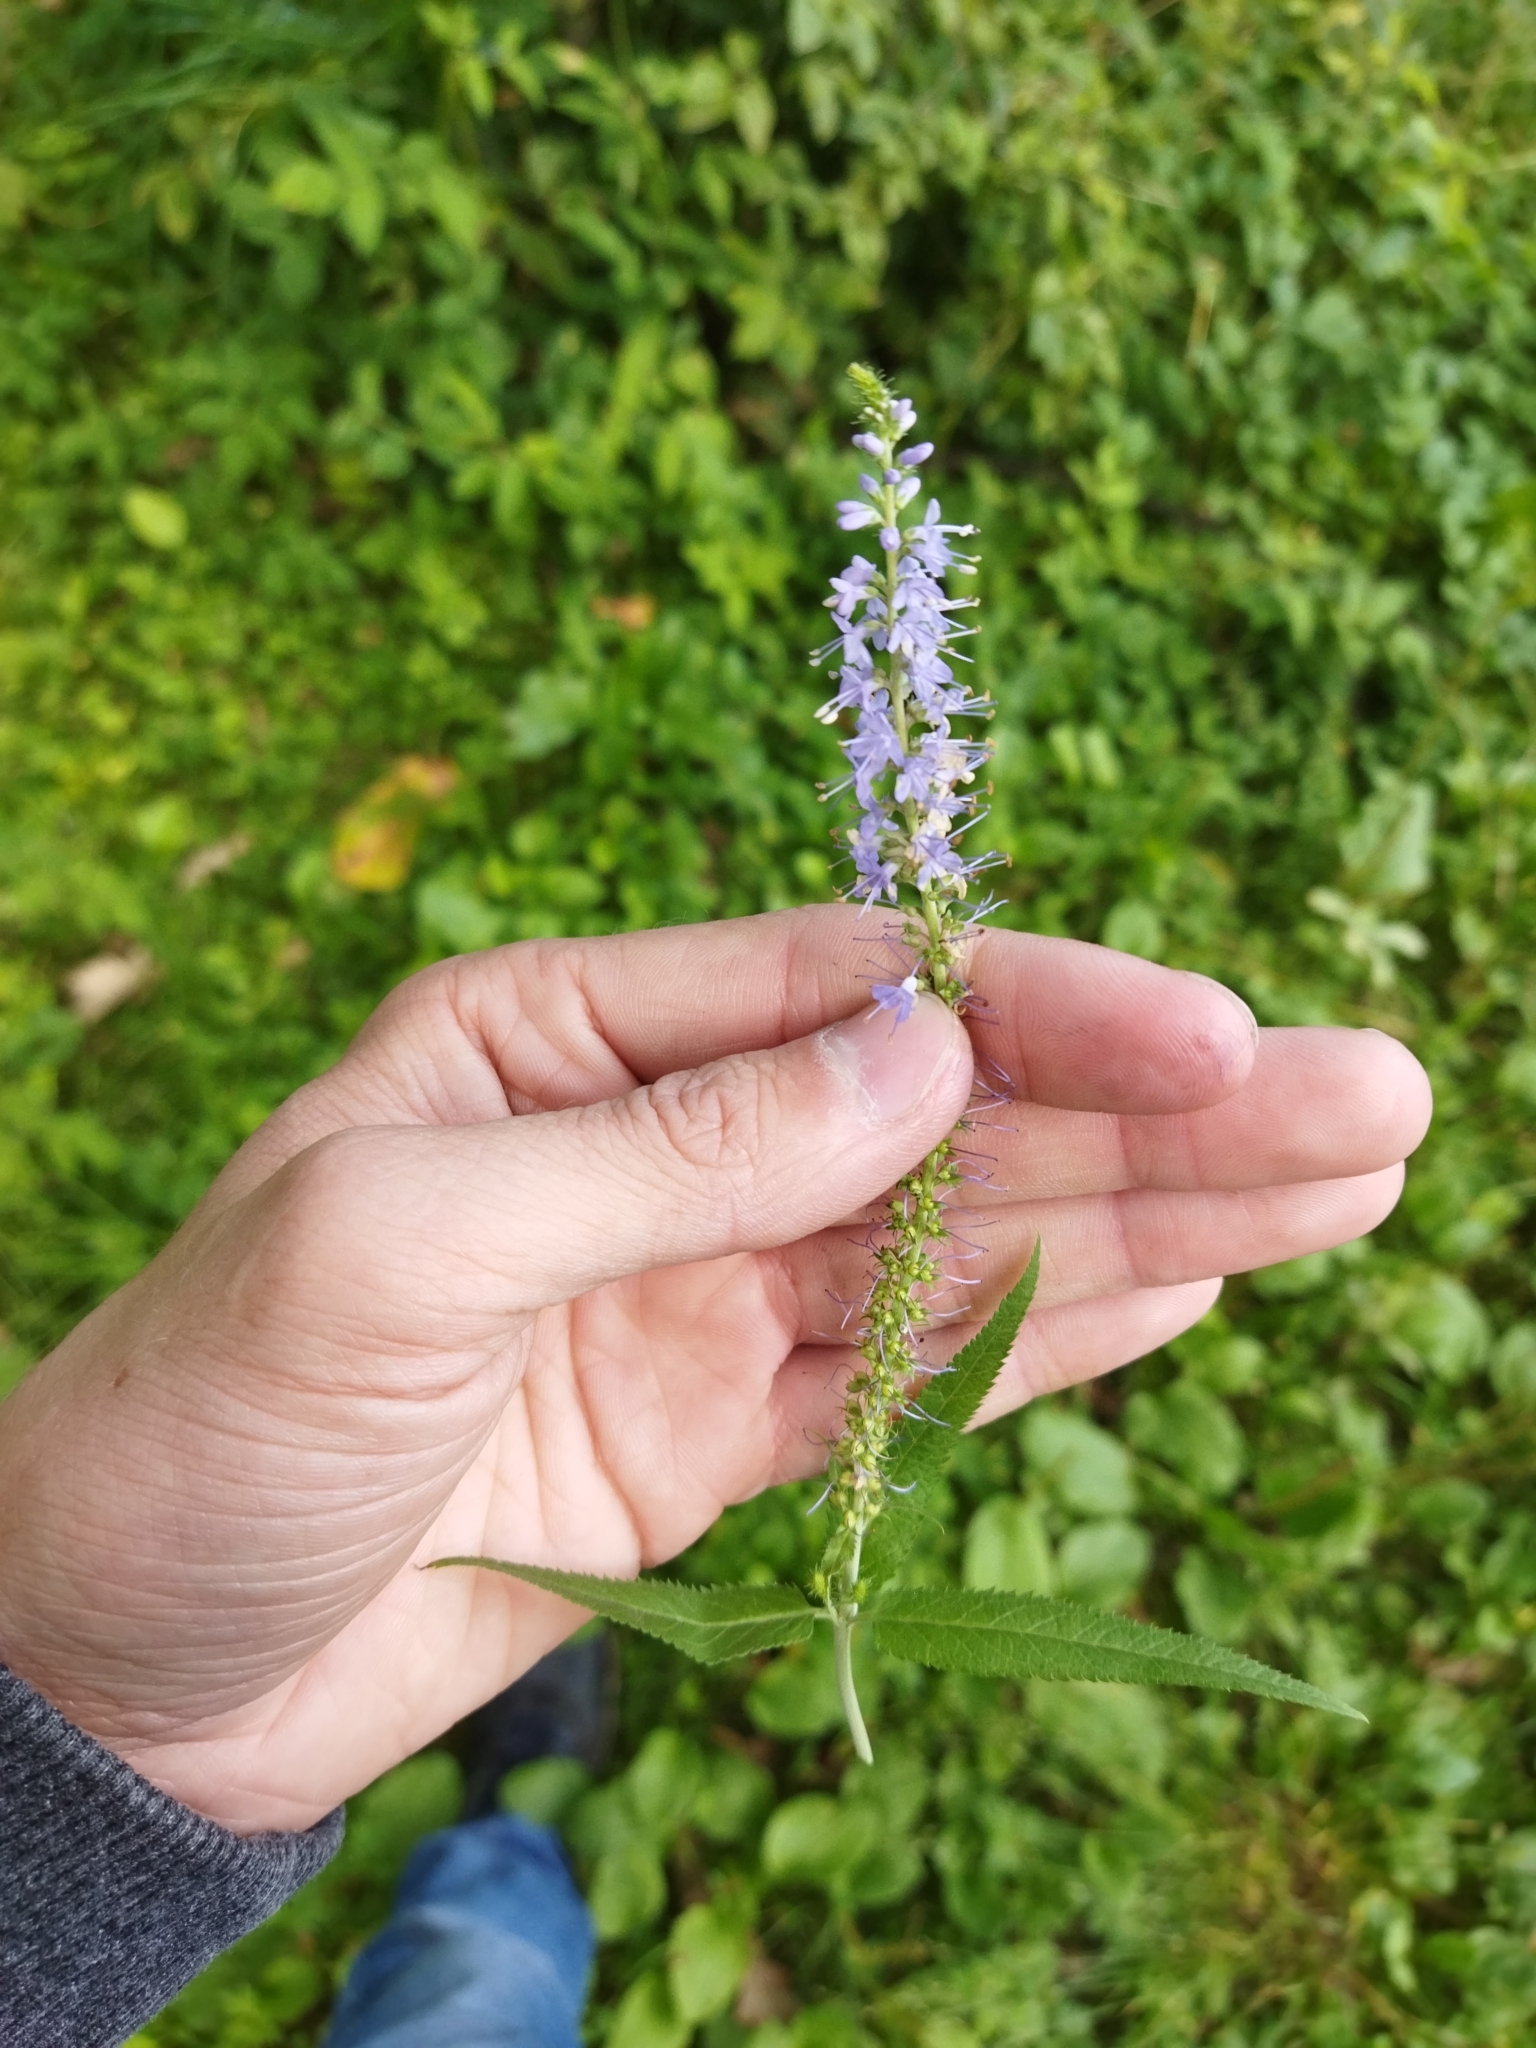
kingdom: Plantae
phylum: Tracheophyta
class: Magnoliopsida
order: Lamiales
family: Plantaginaceae
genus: Veronica
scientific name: Veronica longifolia
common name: Garden speedwell
